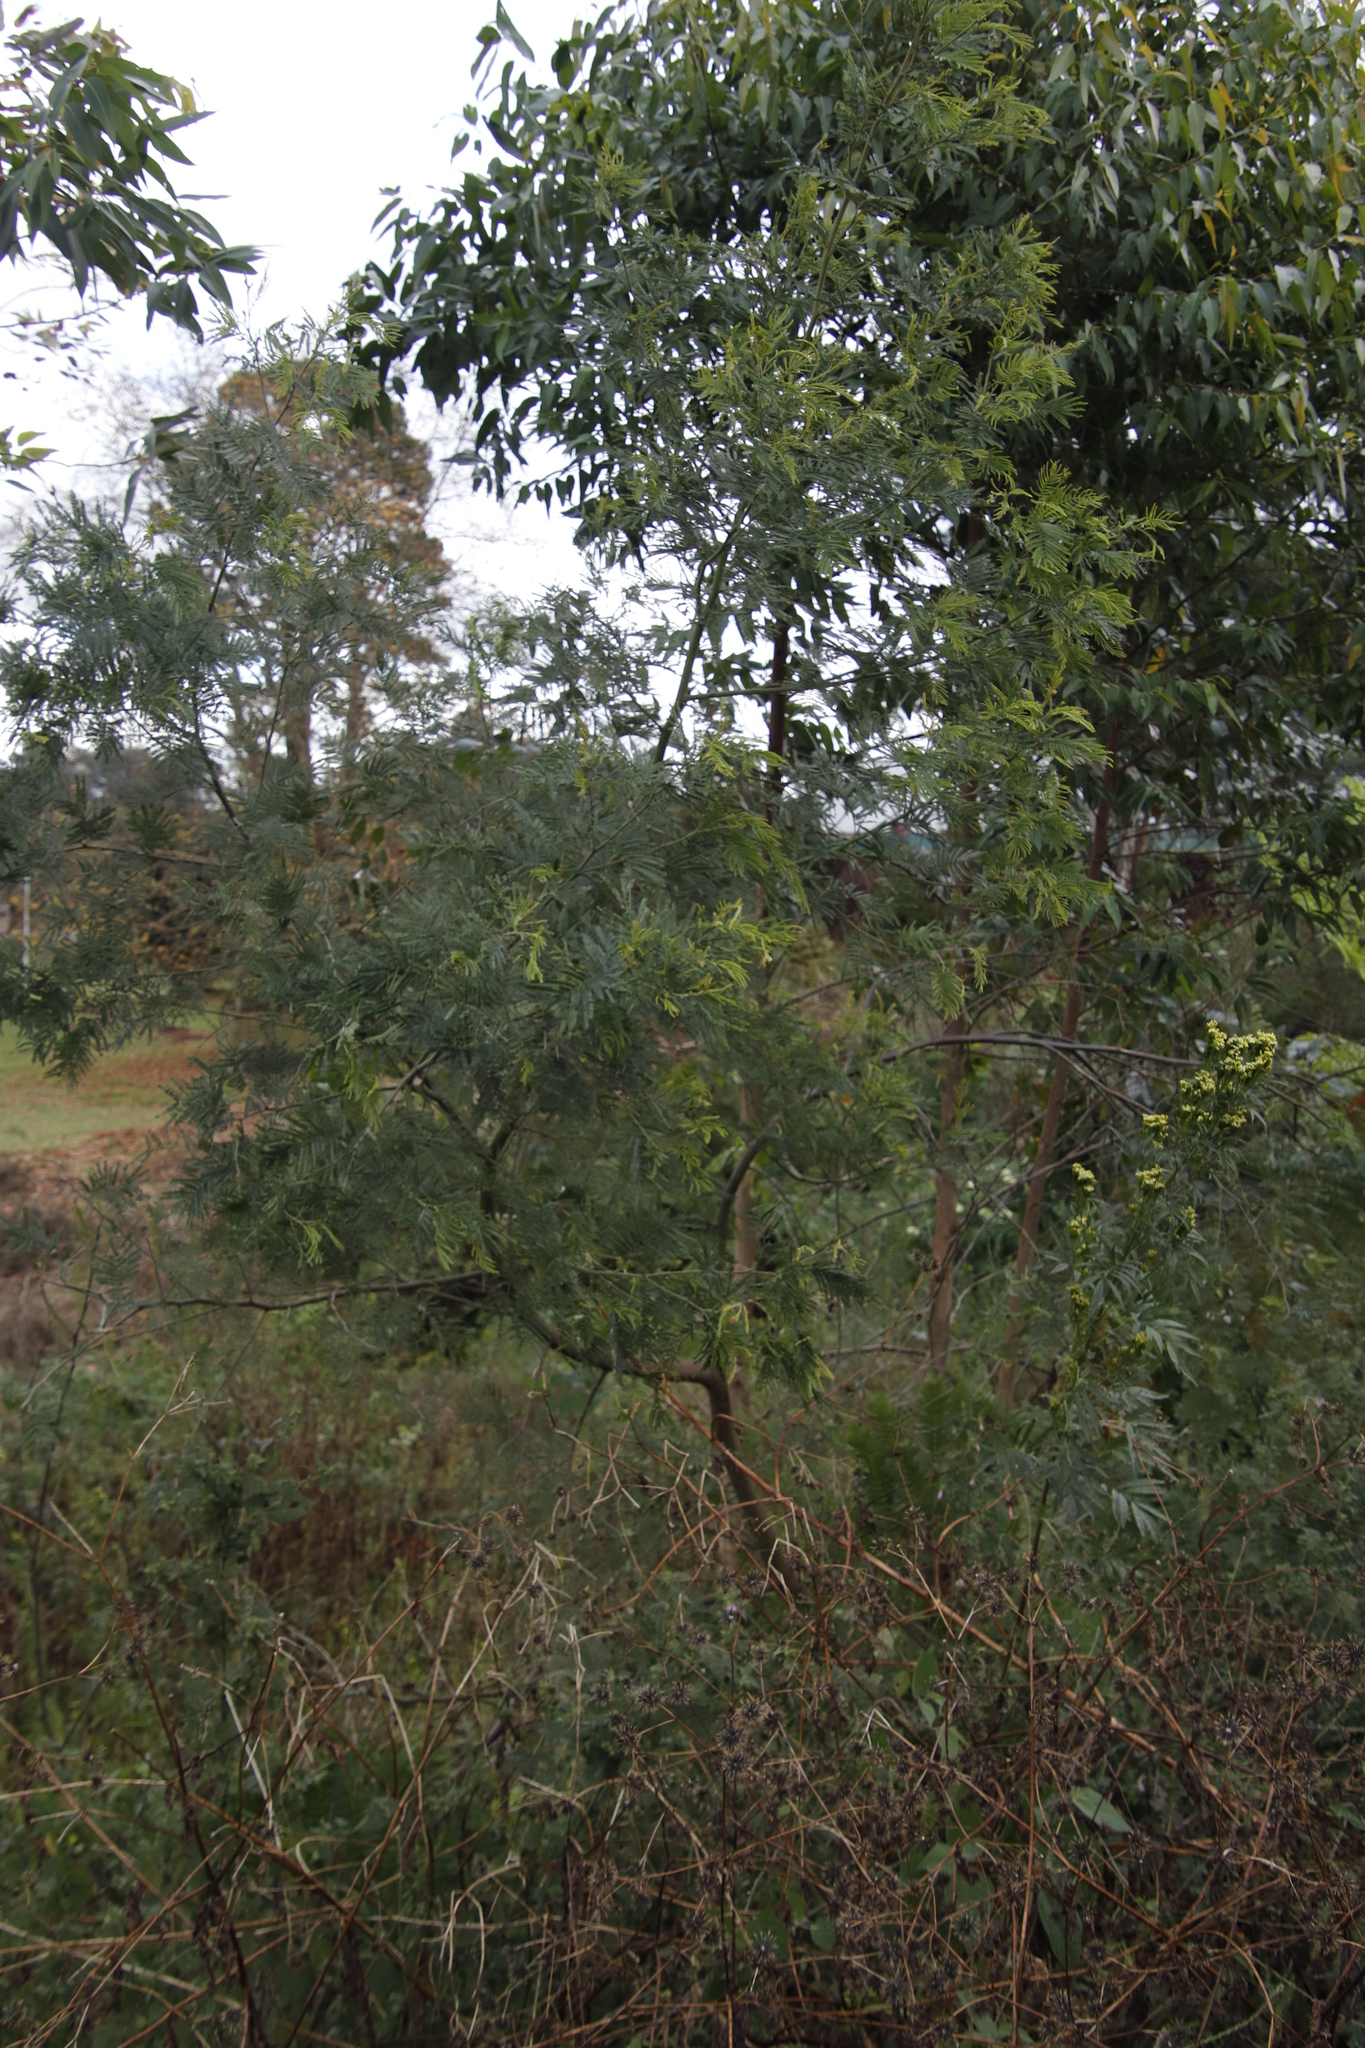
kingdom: Plantae
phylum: Tracheophyta
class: Magnoliopsida
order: Fabales
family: Fabaceae
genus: Acacia
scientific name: Acacia mearnsii
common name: Black wattle
